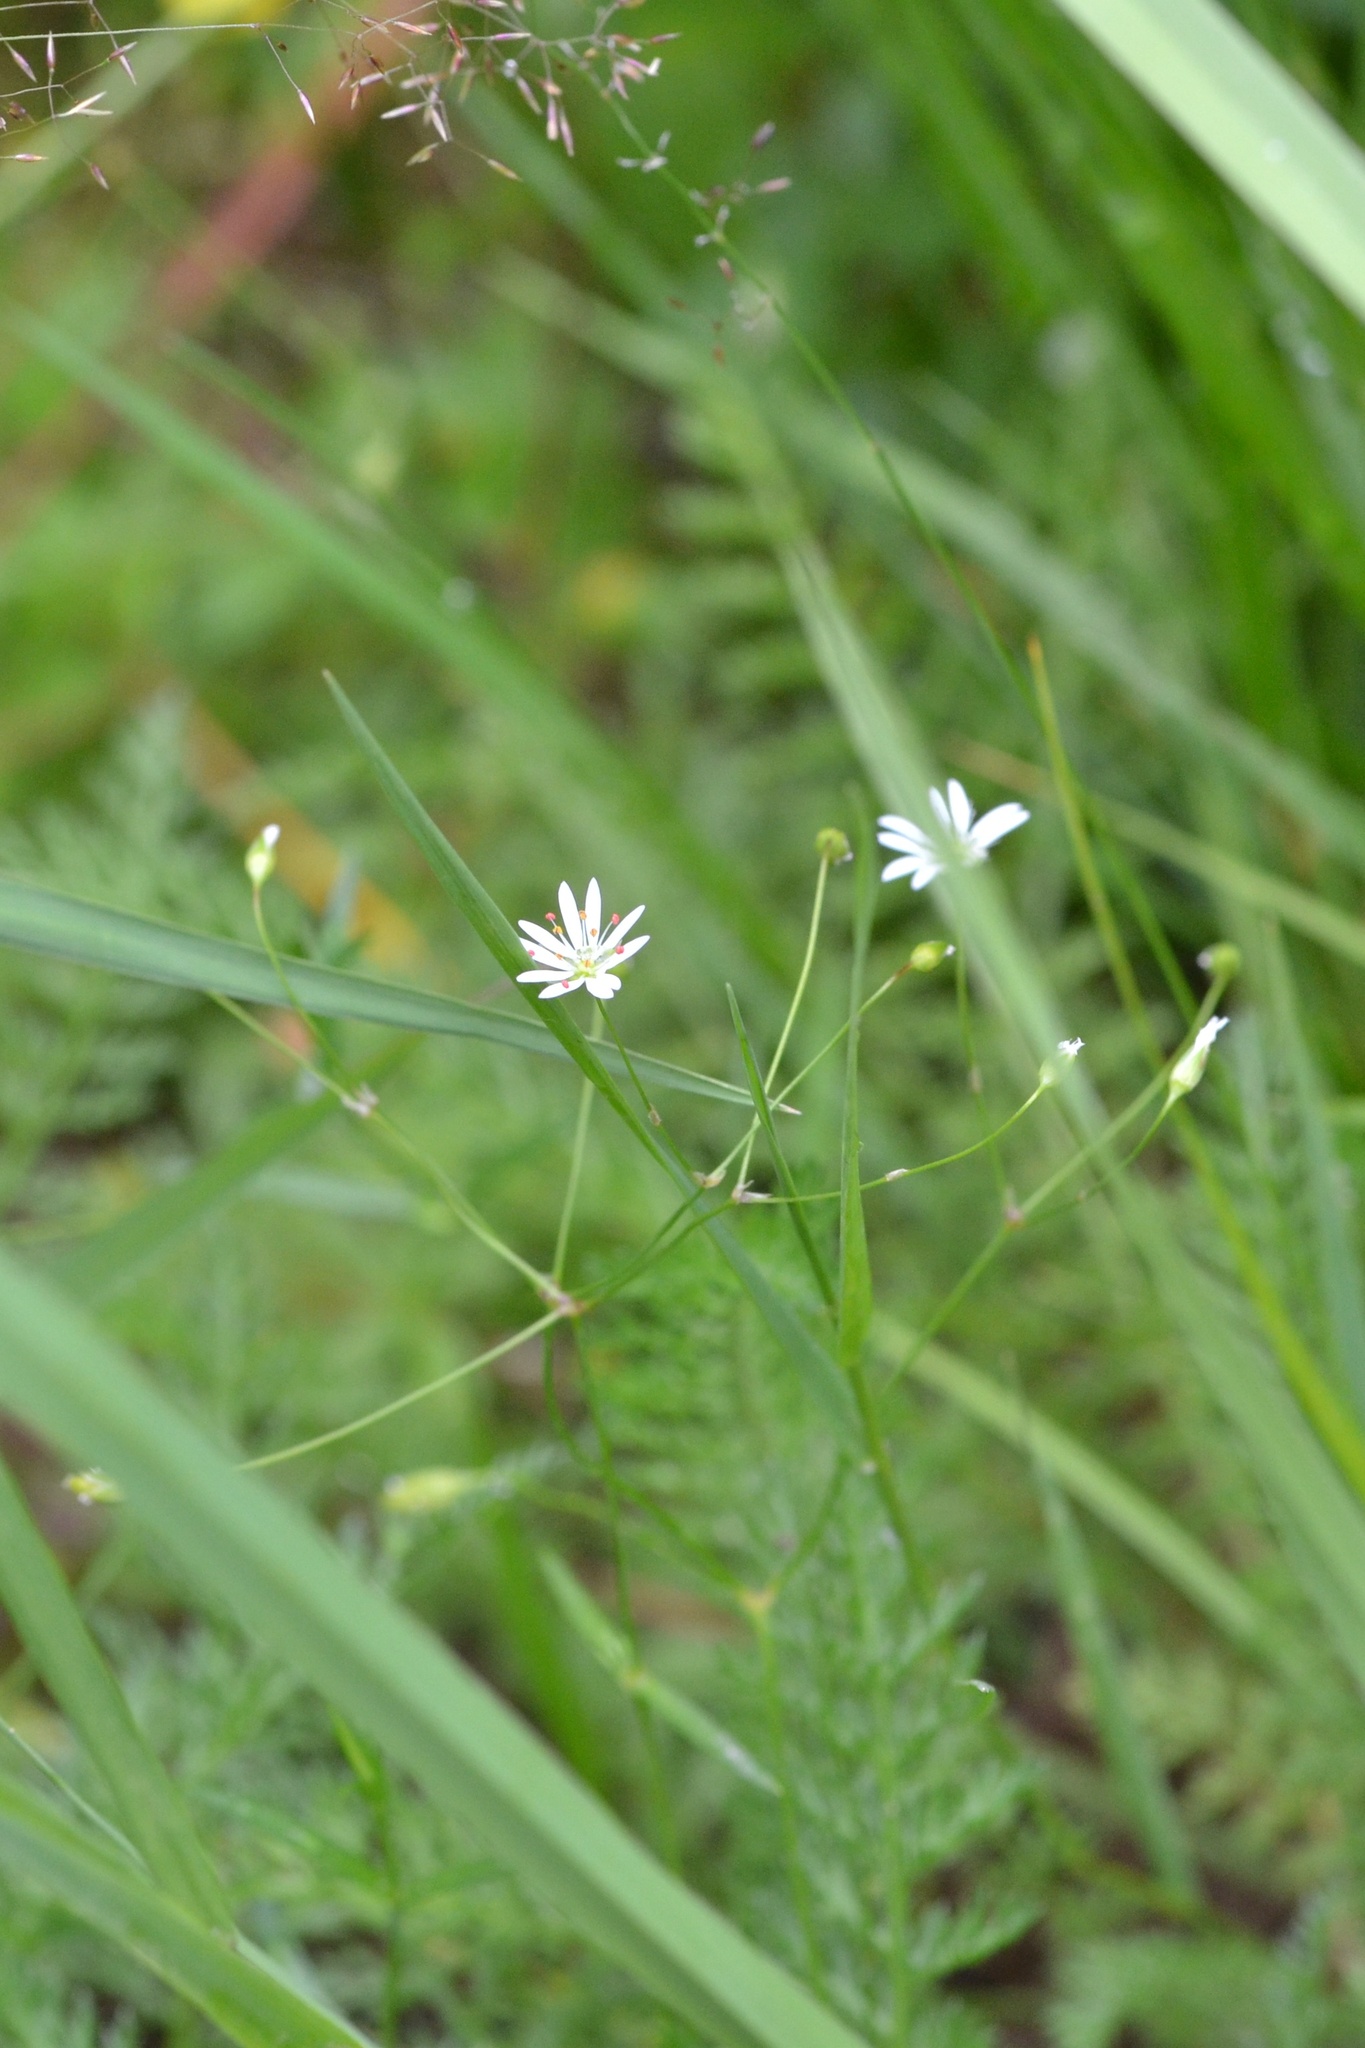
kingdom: Plantae
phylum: Tracheophyta
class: Magnoliopsida
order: Caryophyllales
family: Caryophyllaceae
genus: Stellaria
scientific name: Stellaria graminea
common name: Grass-like starwort
